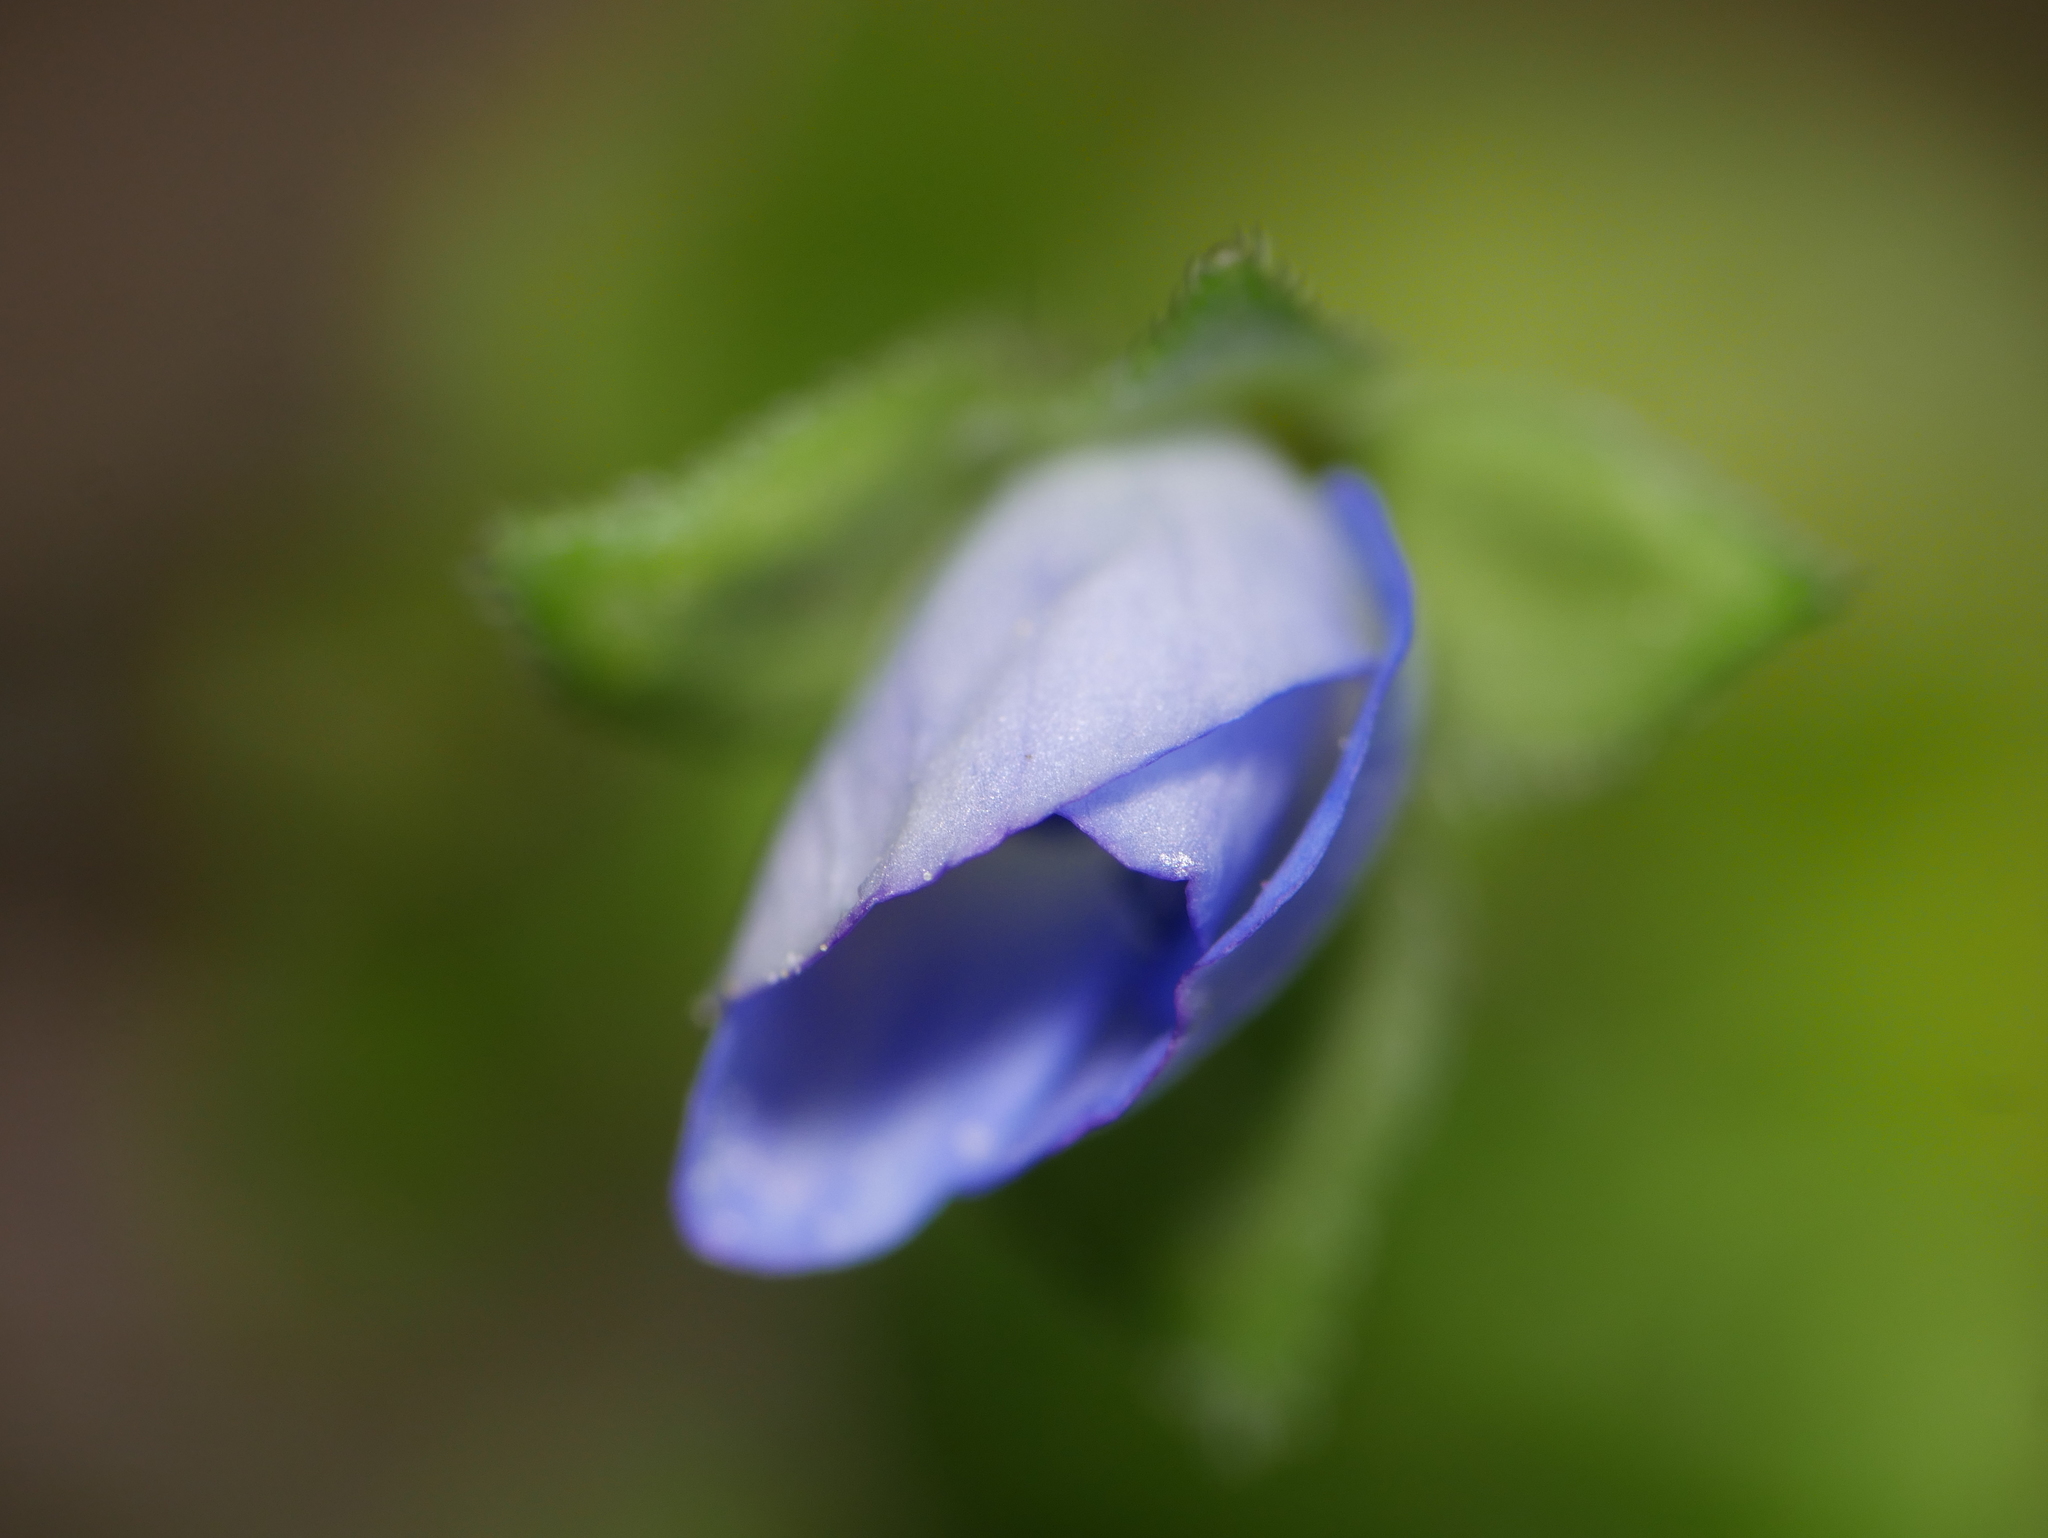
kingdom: Plantae
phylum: Tracheophyta
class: Magnoliopsida
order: Lamiales
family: Plantaginaceae
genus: Veronica
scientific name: Veronica persica
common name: Common field-speedwell
